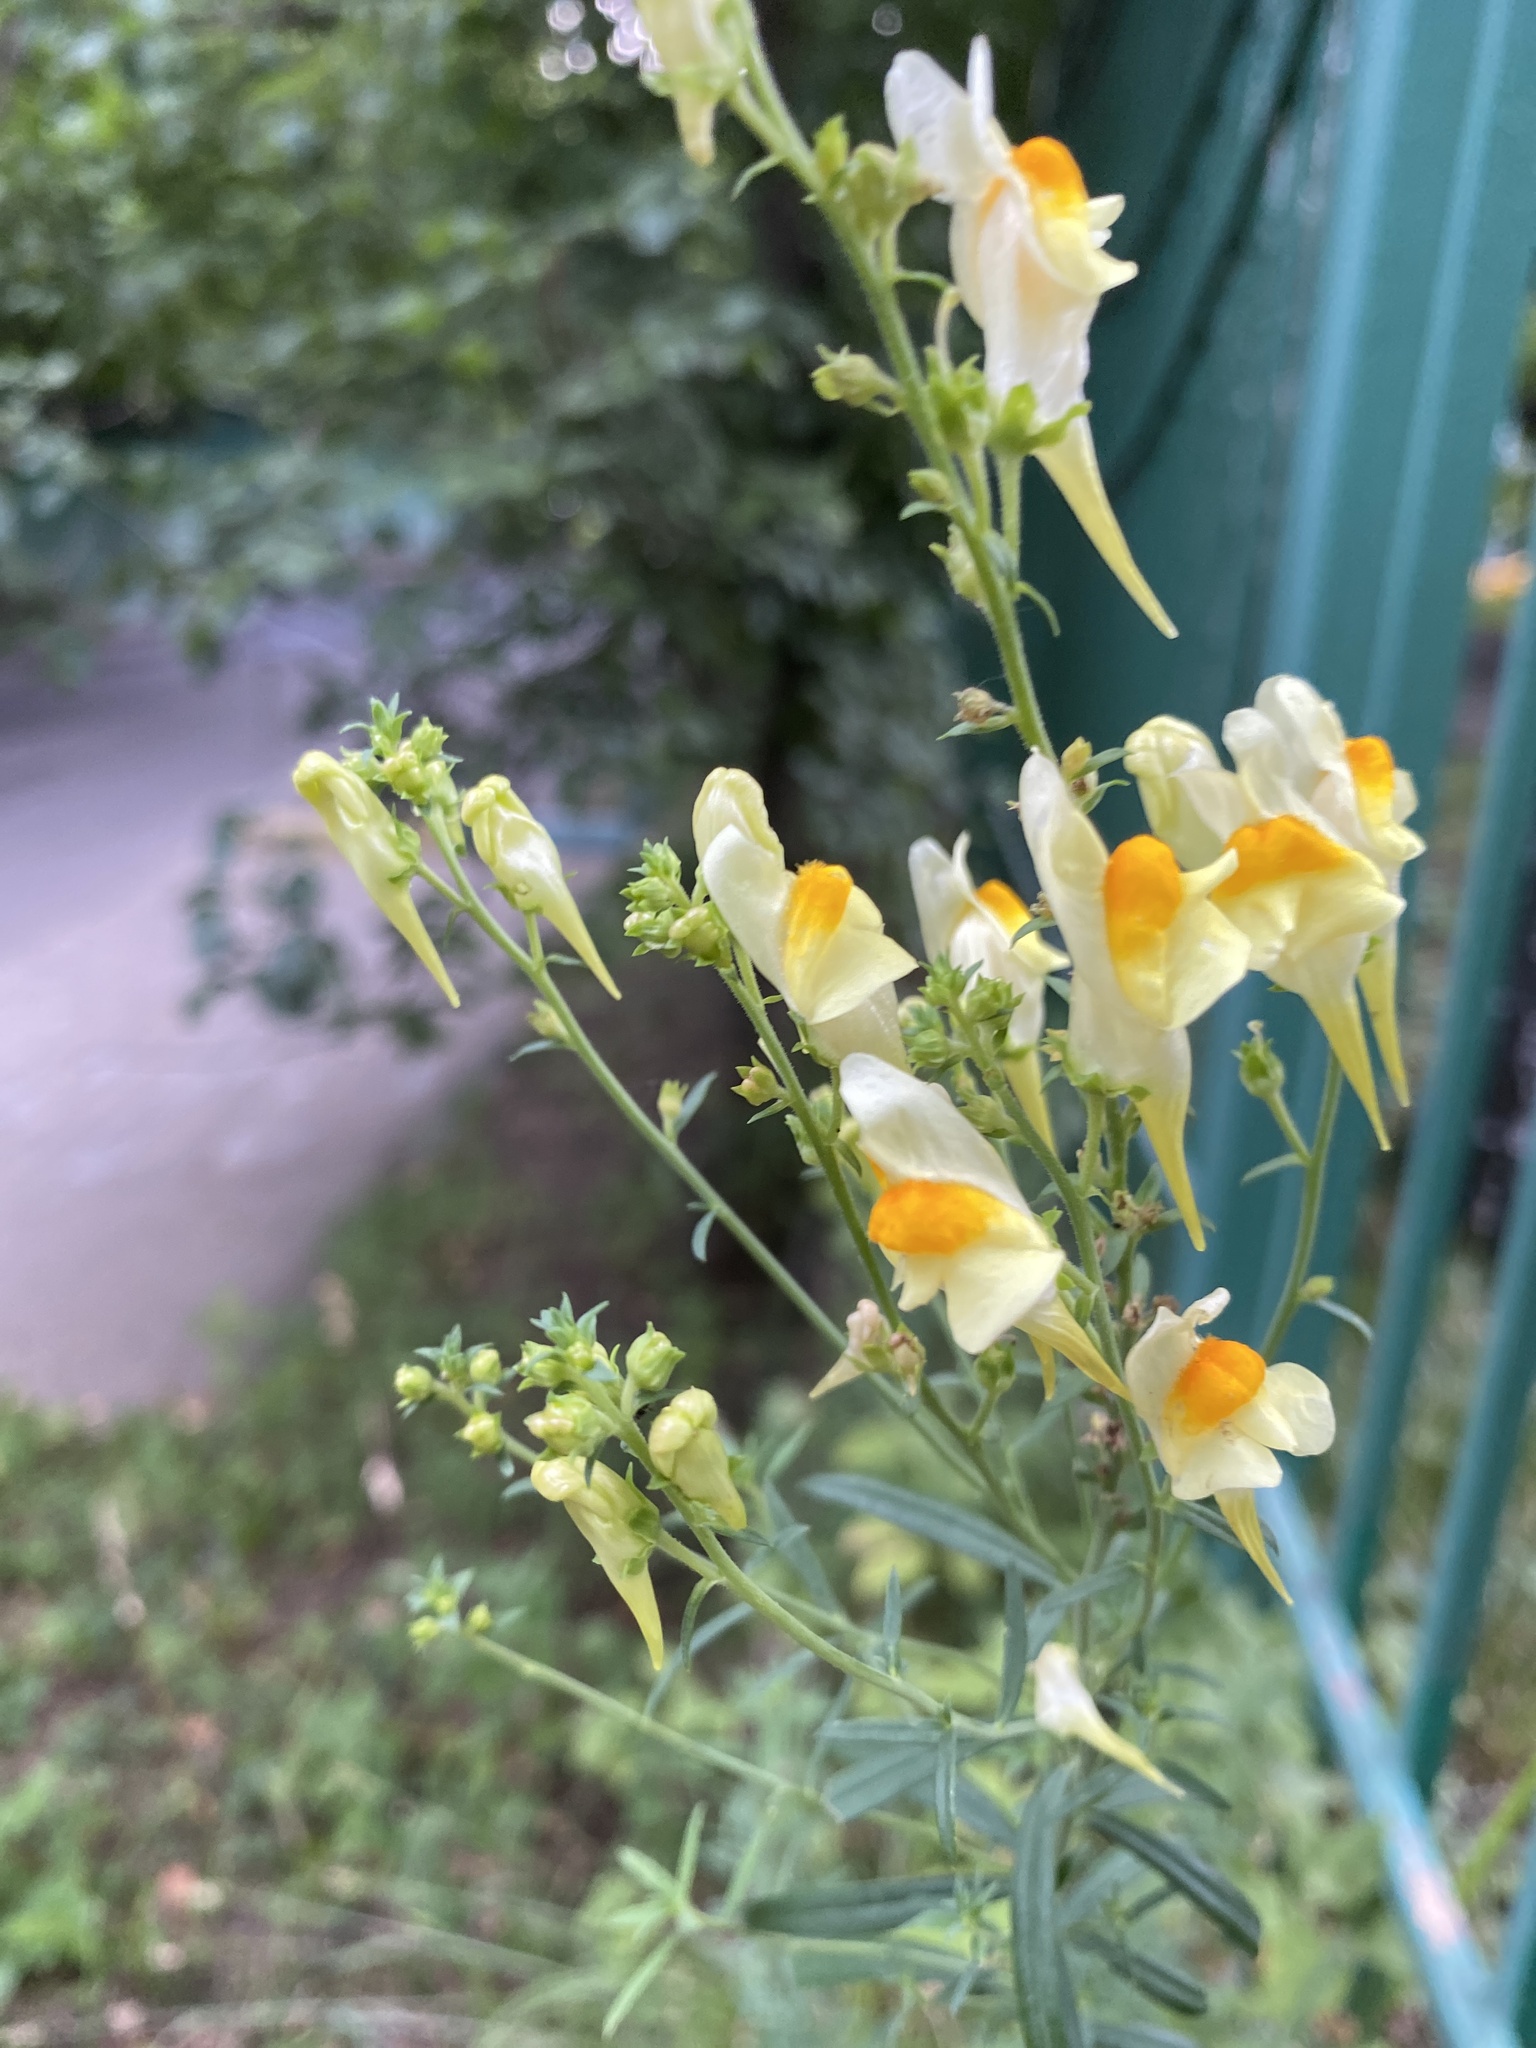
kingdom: Plantae
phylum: Tracheophyta
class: Magnoliopsida
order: Lamiales
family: Plantaginaceae
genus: Linaria
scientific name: Linaria vulgaris
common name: Butter and eggs
